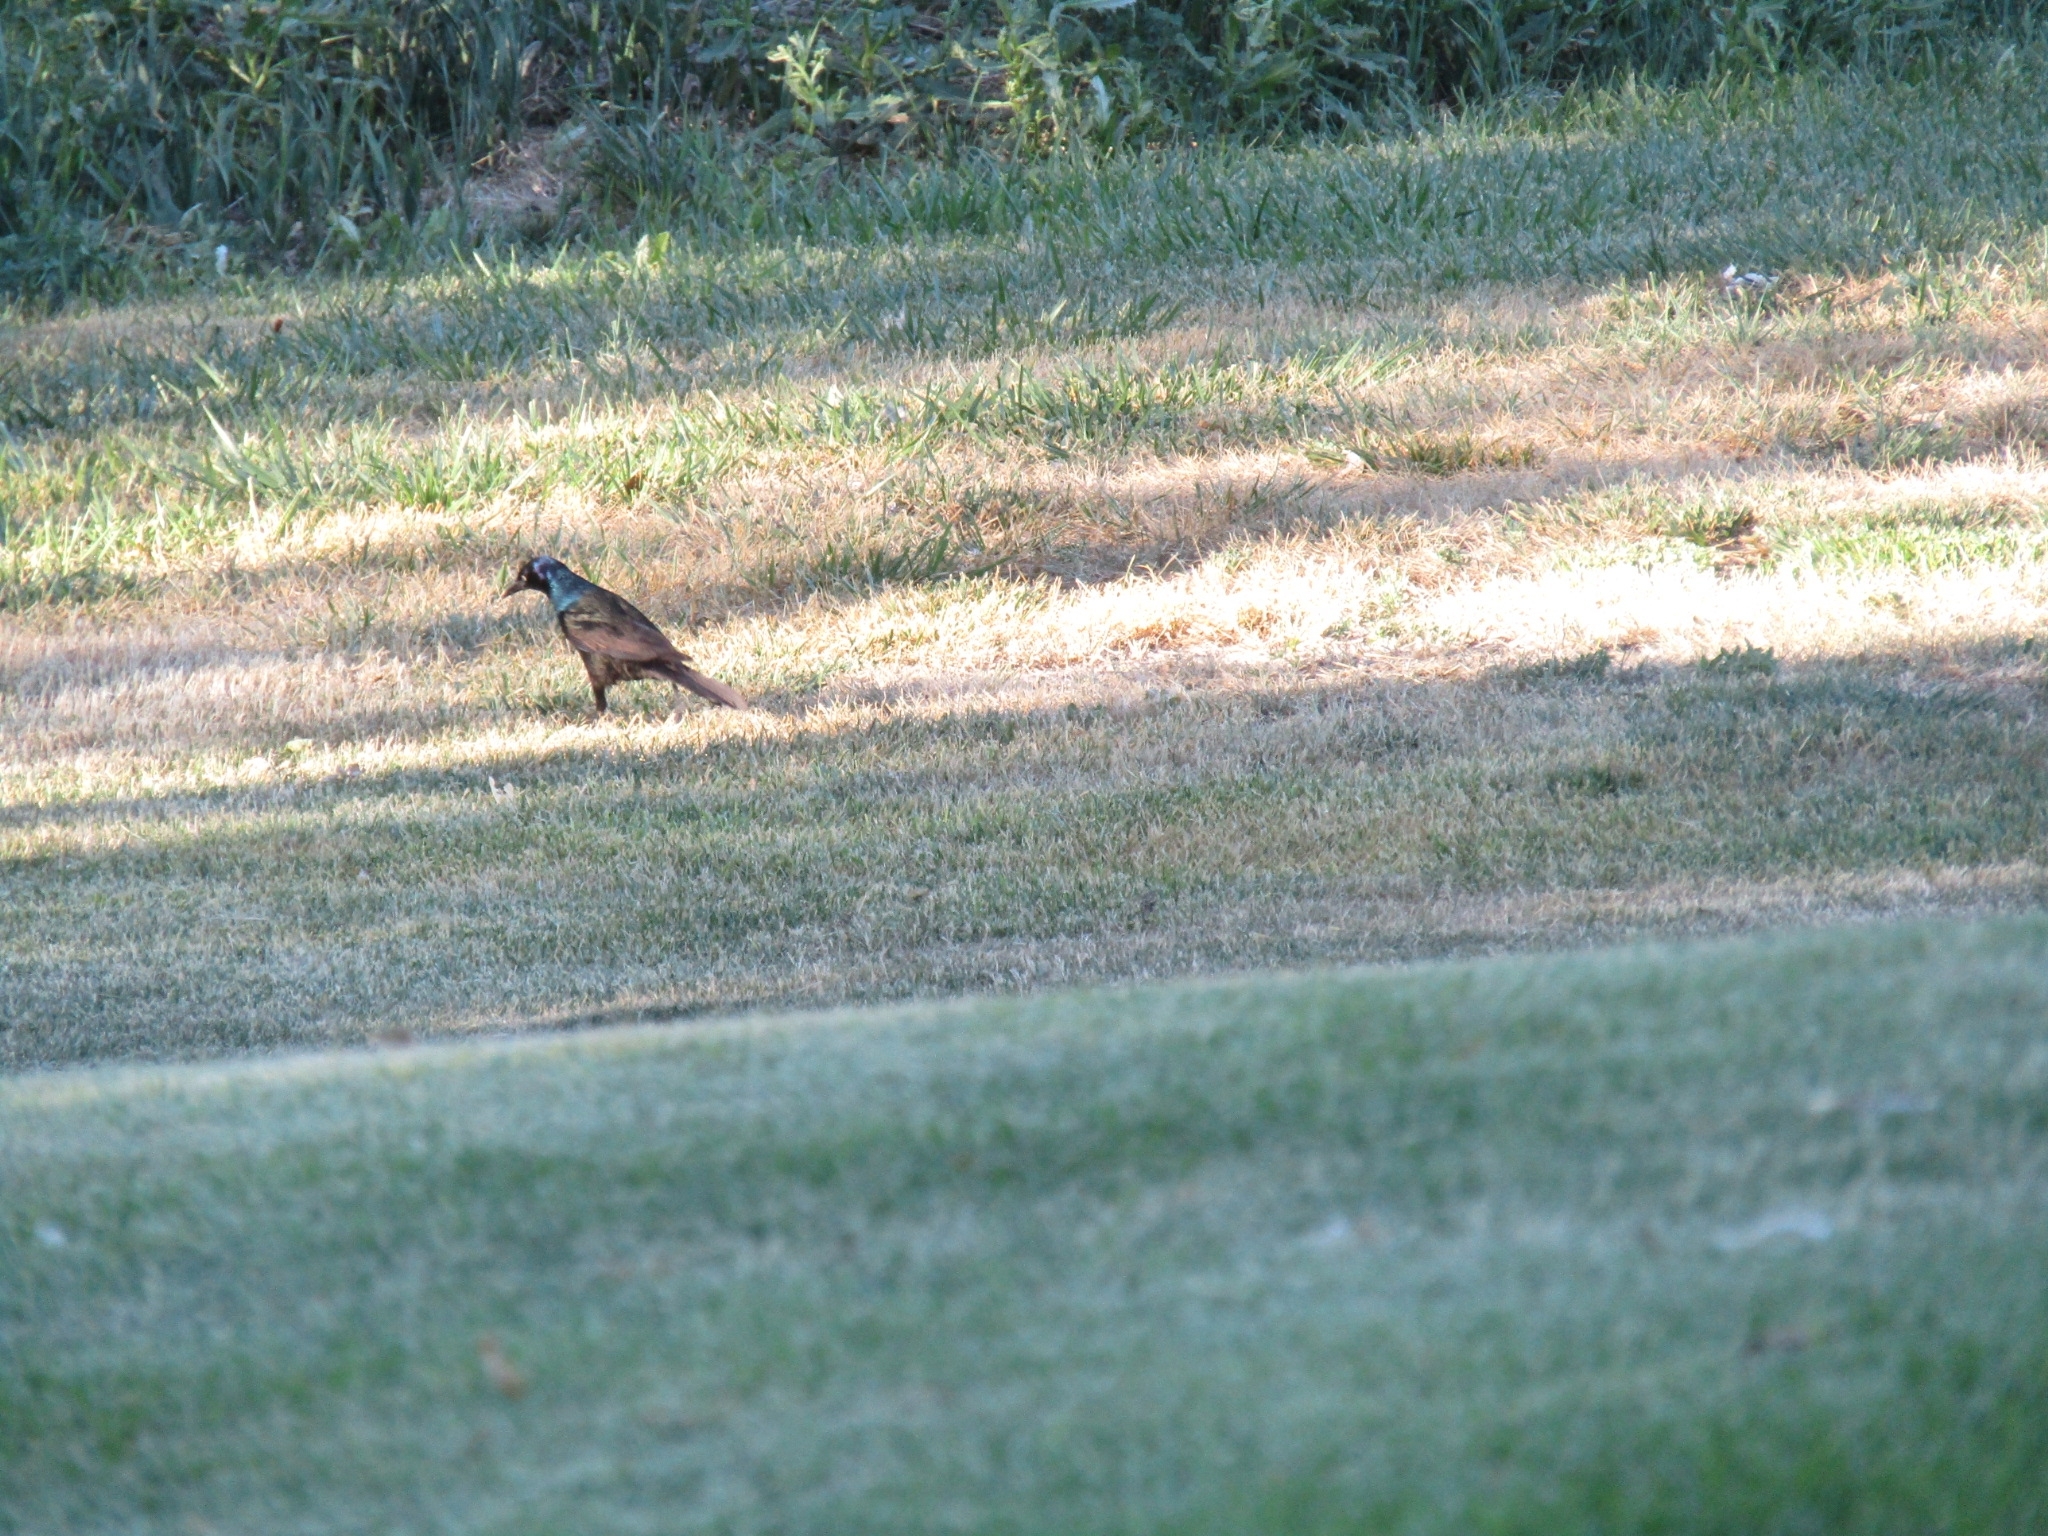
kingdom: Animalia
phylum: Chordata
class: Aves
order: Passeriformes
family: Icteridae
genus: Quiscalus
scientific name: Quiscalus quiscula
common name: Common grackle
